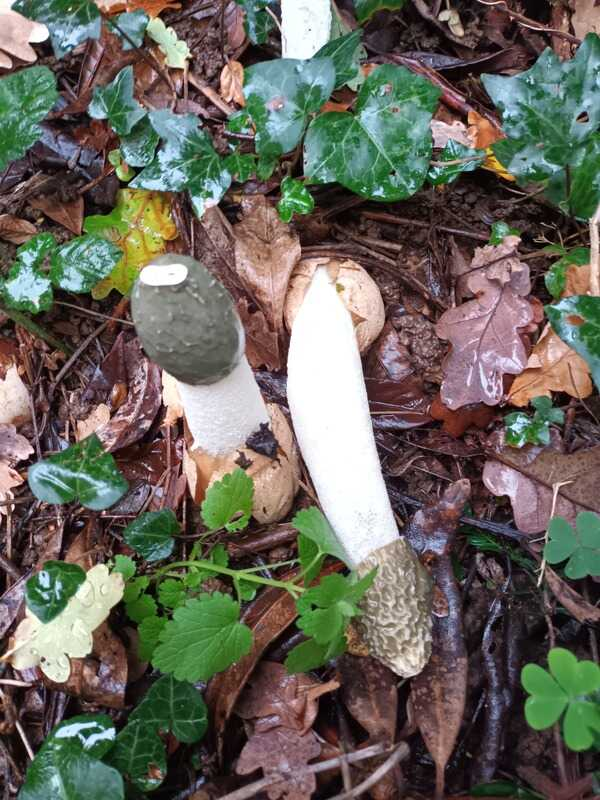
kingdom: Fungi
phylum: Basidiomycota
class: Agaricomycetes
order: Phallales
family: Phallaceae
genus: Phallus
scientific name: Phallus impudicus
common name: Common stinkhorn
